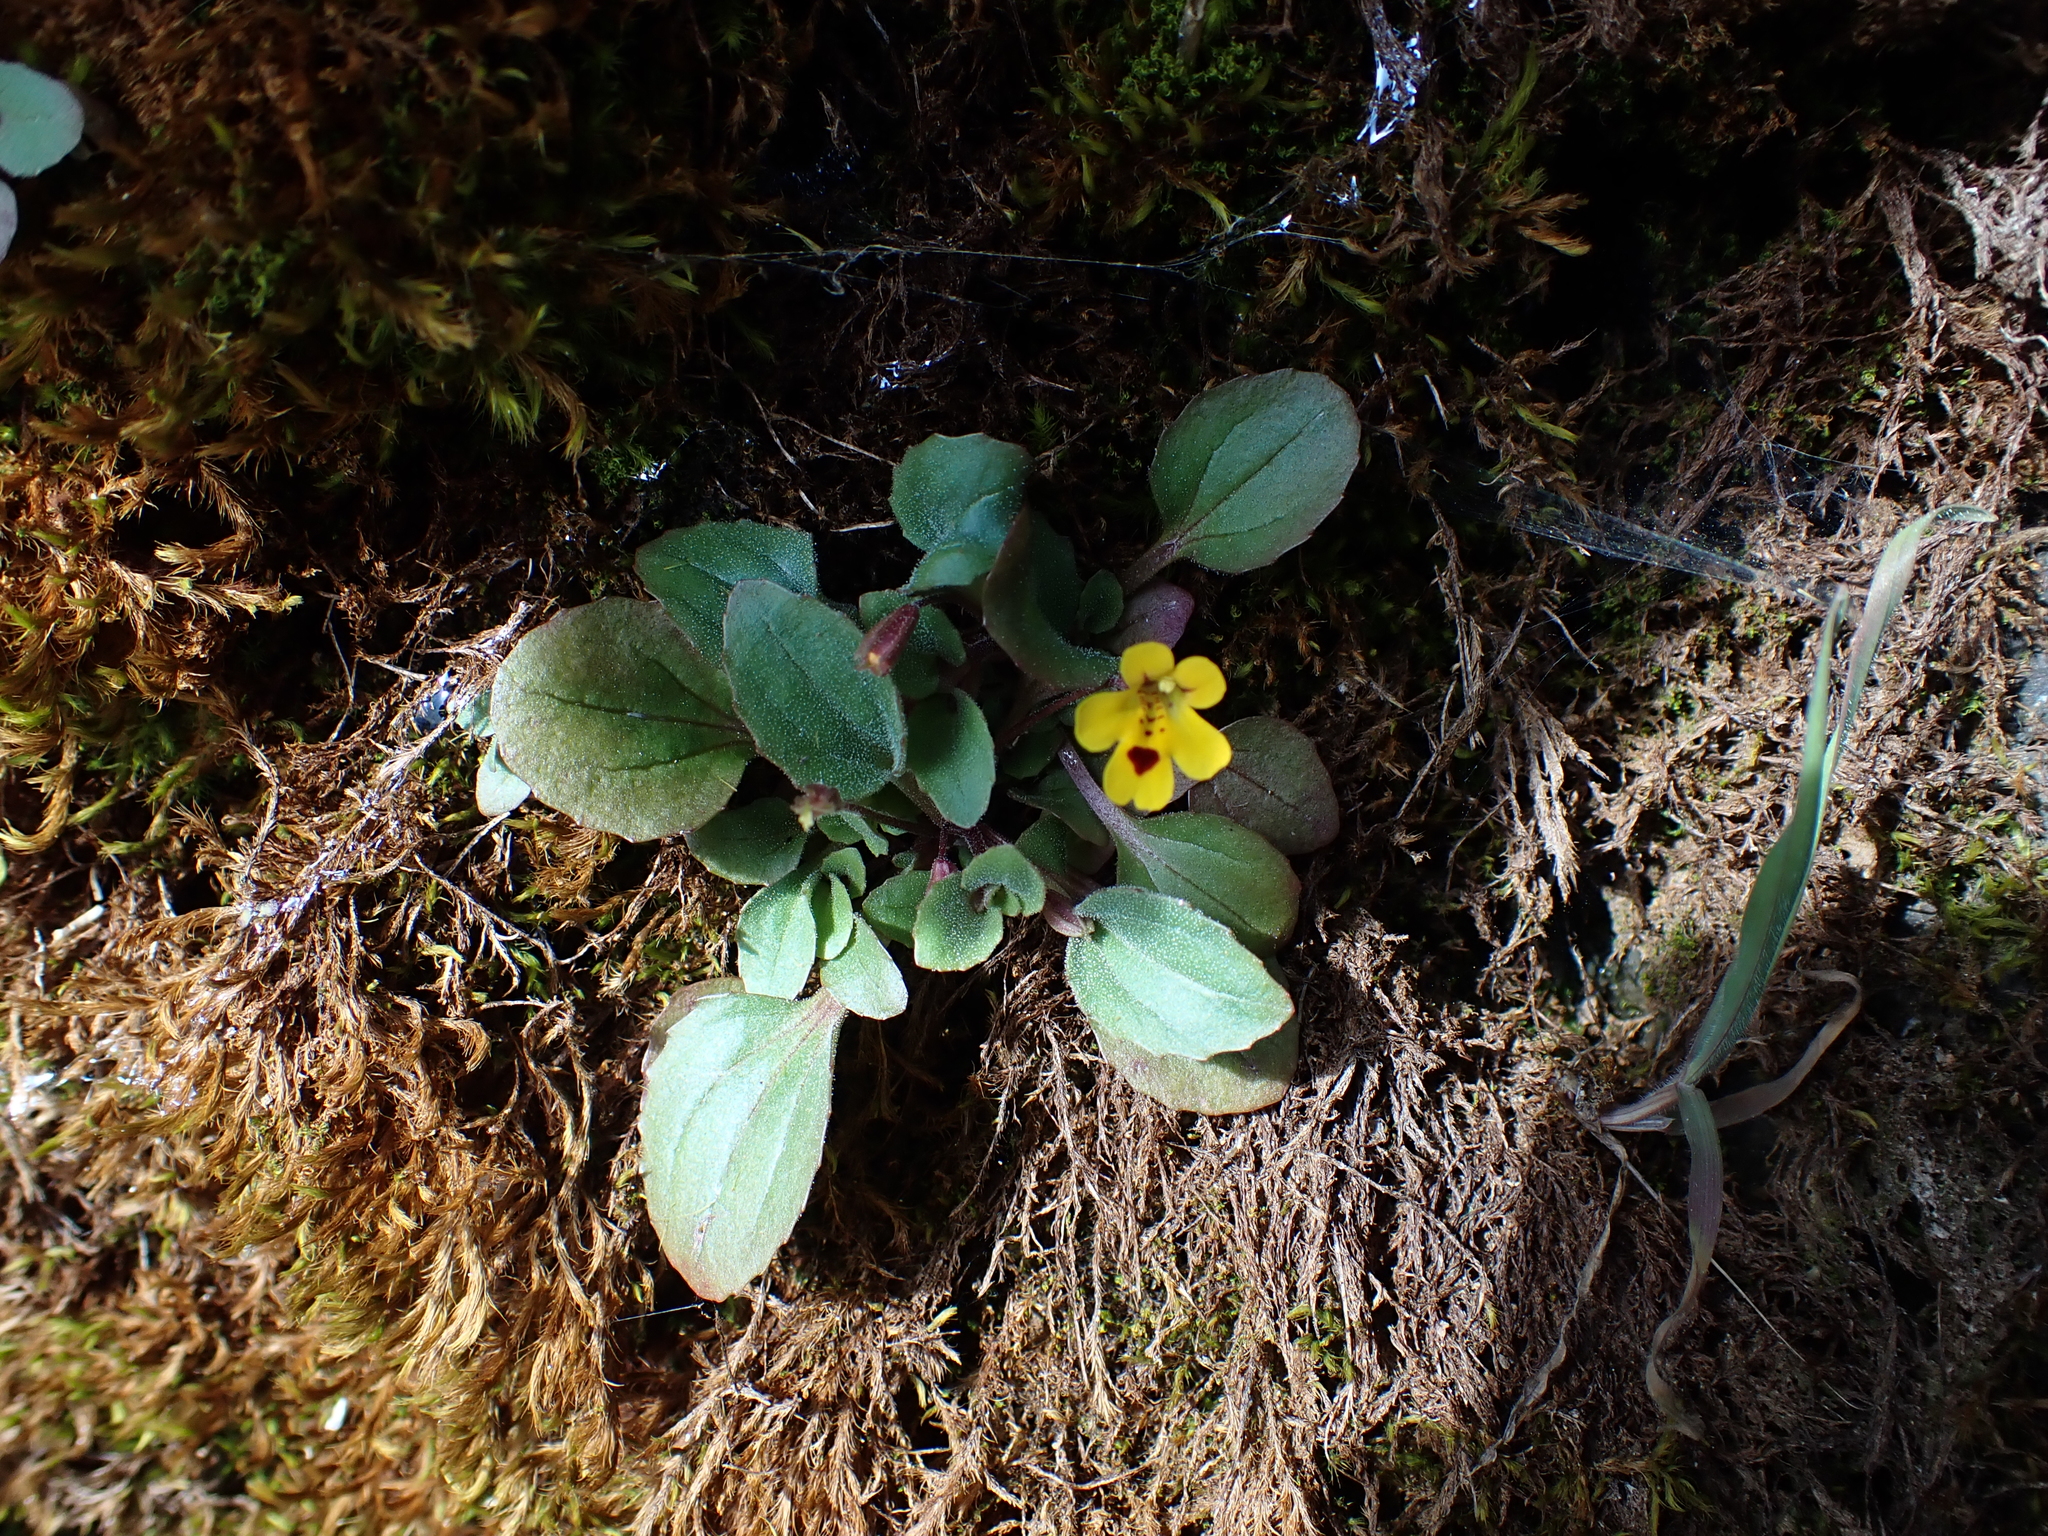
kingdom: Plantae
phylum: Tracheophyta
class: Magnoliopsida
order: Lamiales
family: Phrymaceae
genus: Erythranthe
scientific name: Erythranthe alsinoides
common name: Chickweed monkeyflower
